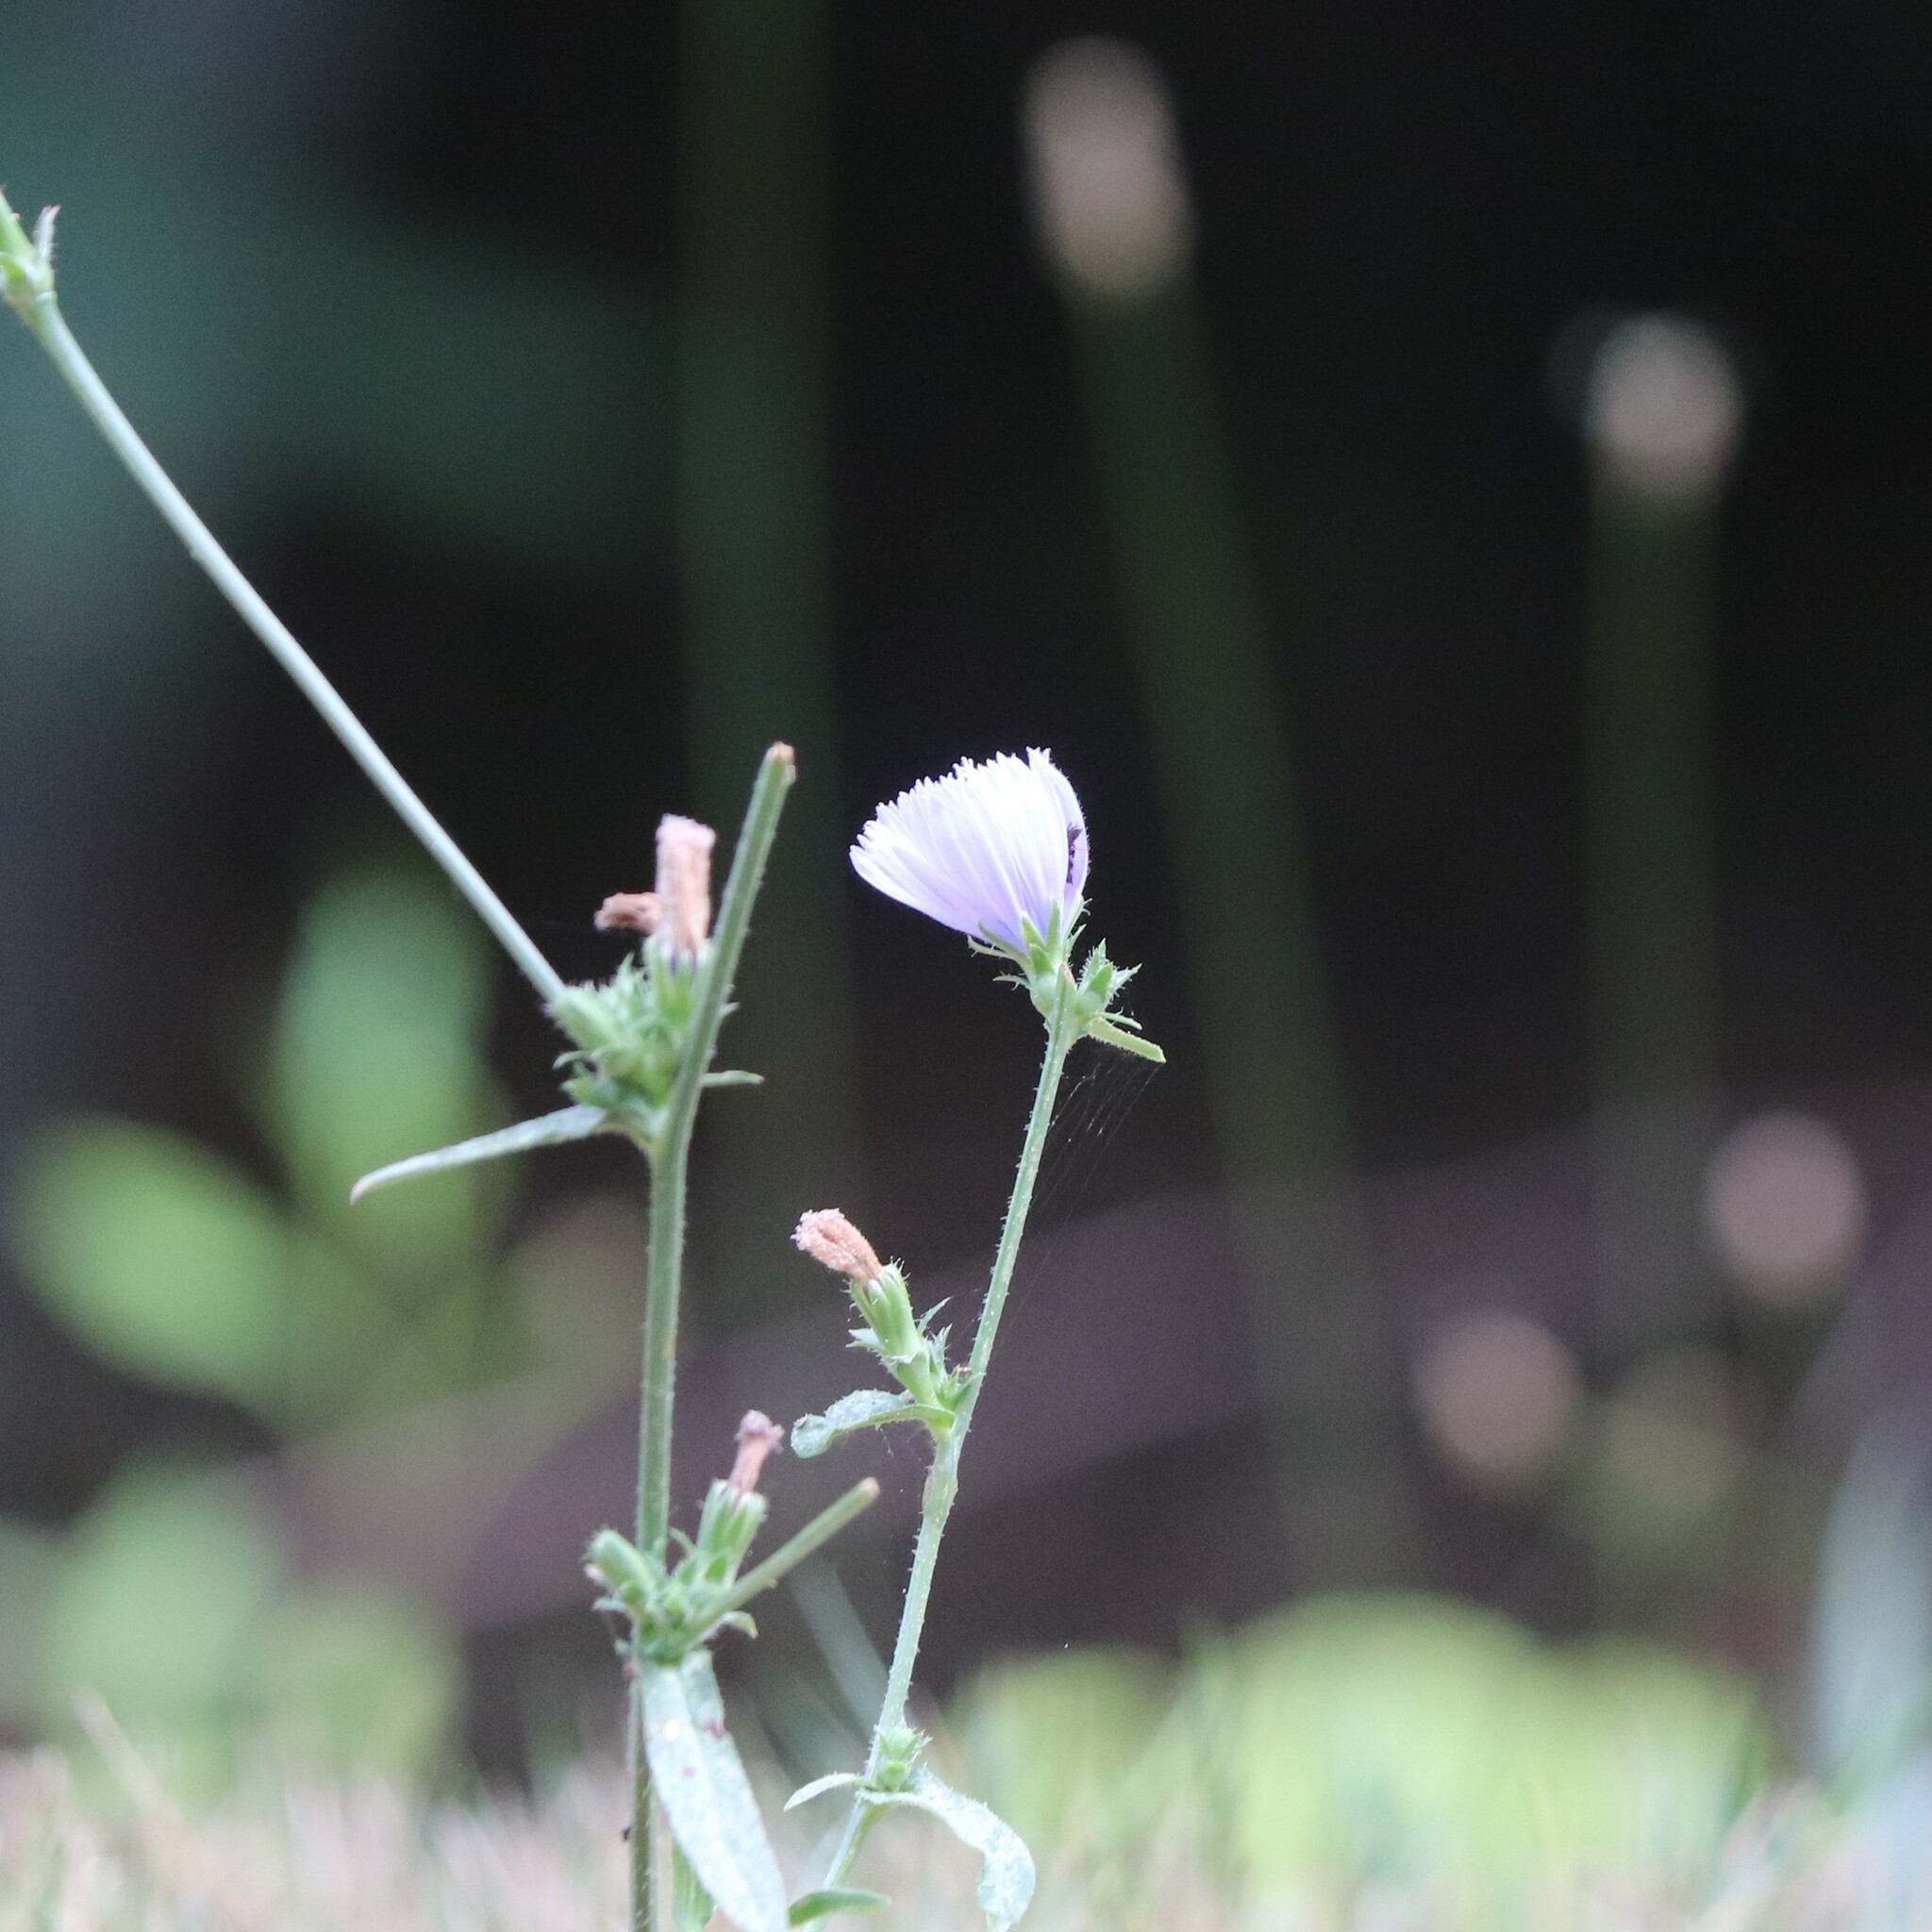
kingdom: Plantae
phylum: Tracheophyta
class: Magnoliopsida
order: Asterales
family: Asteraceae
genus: Cichorium
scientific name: Cichorium intybus
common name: Chicory
